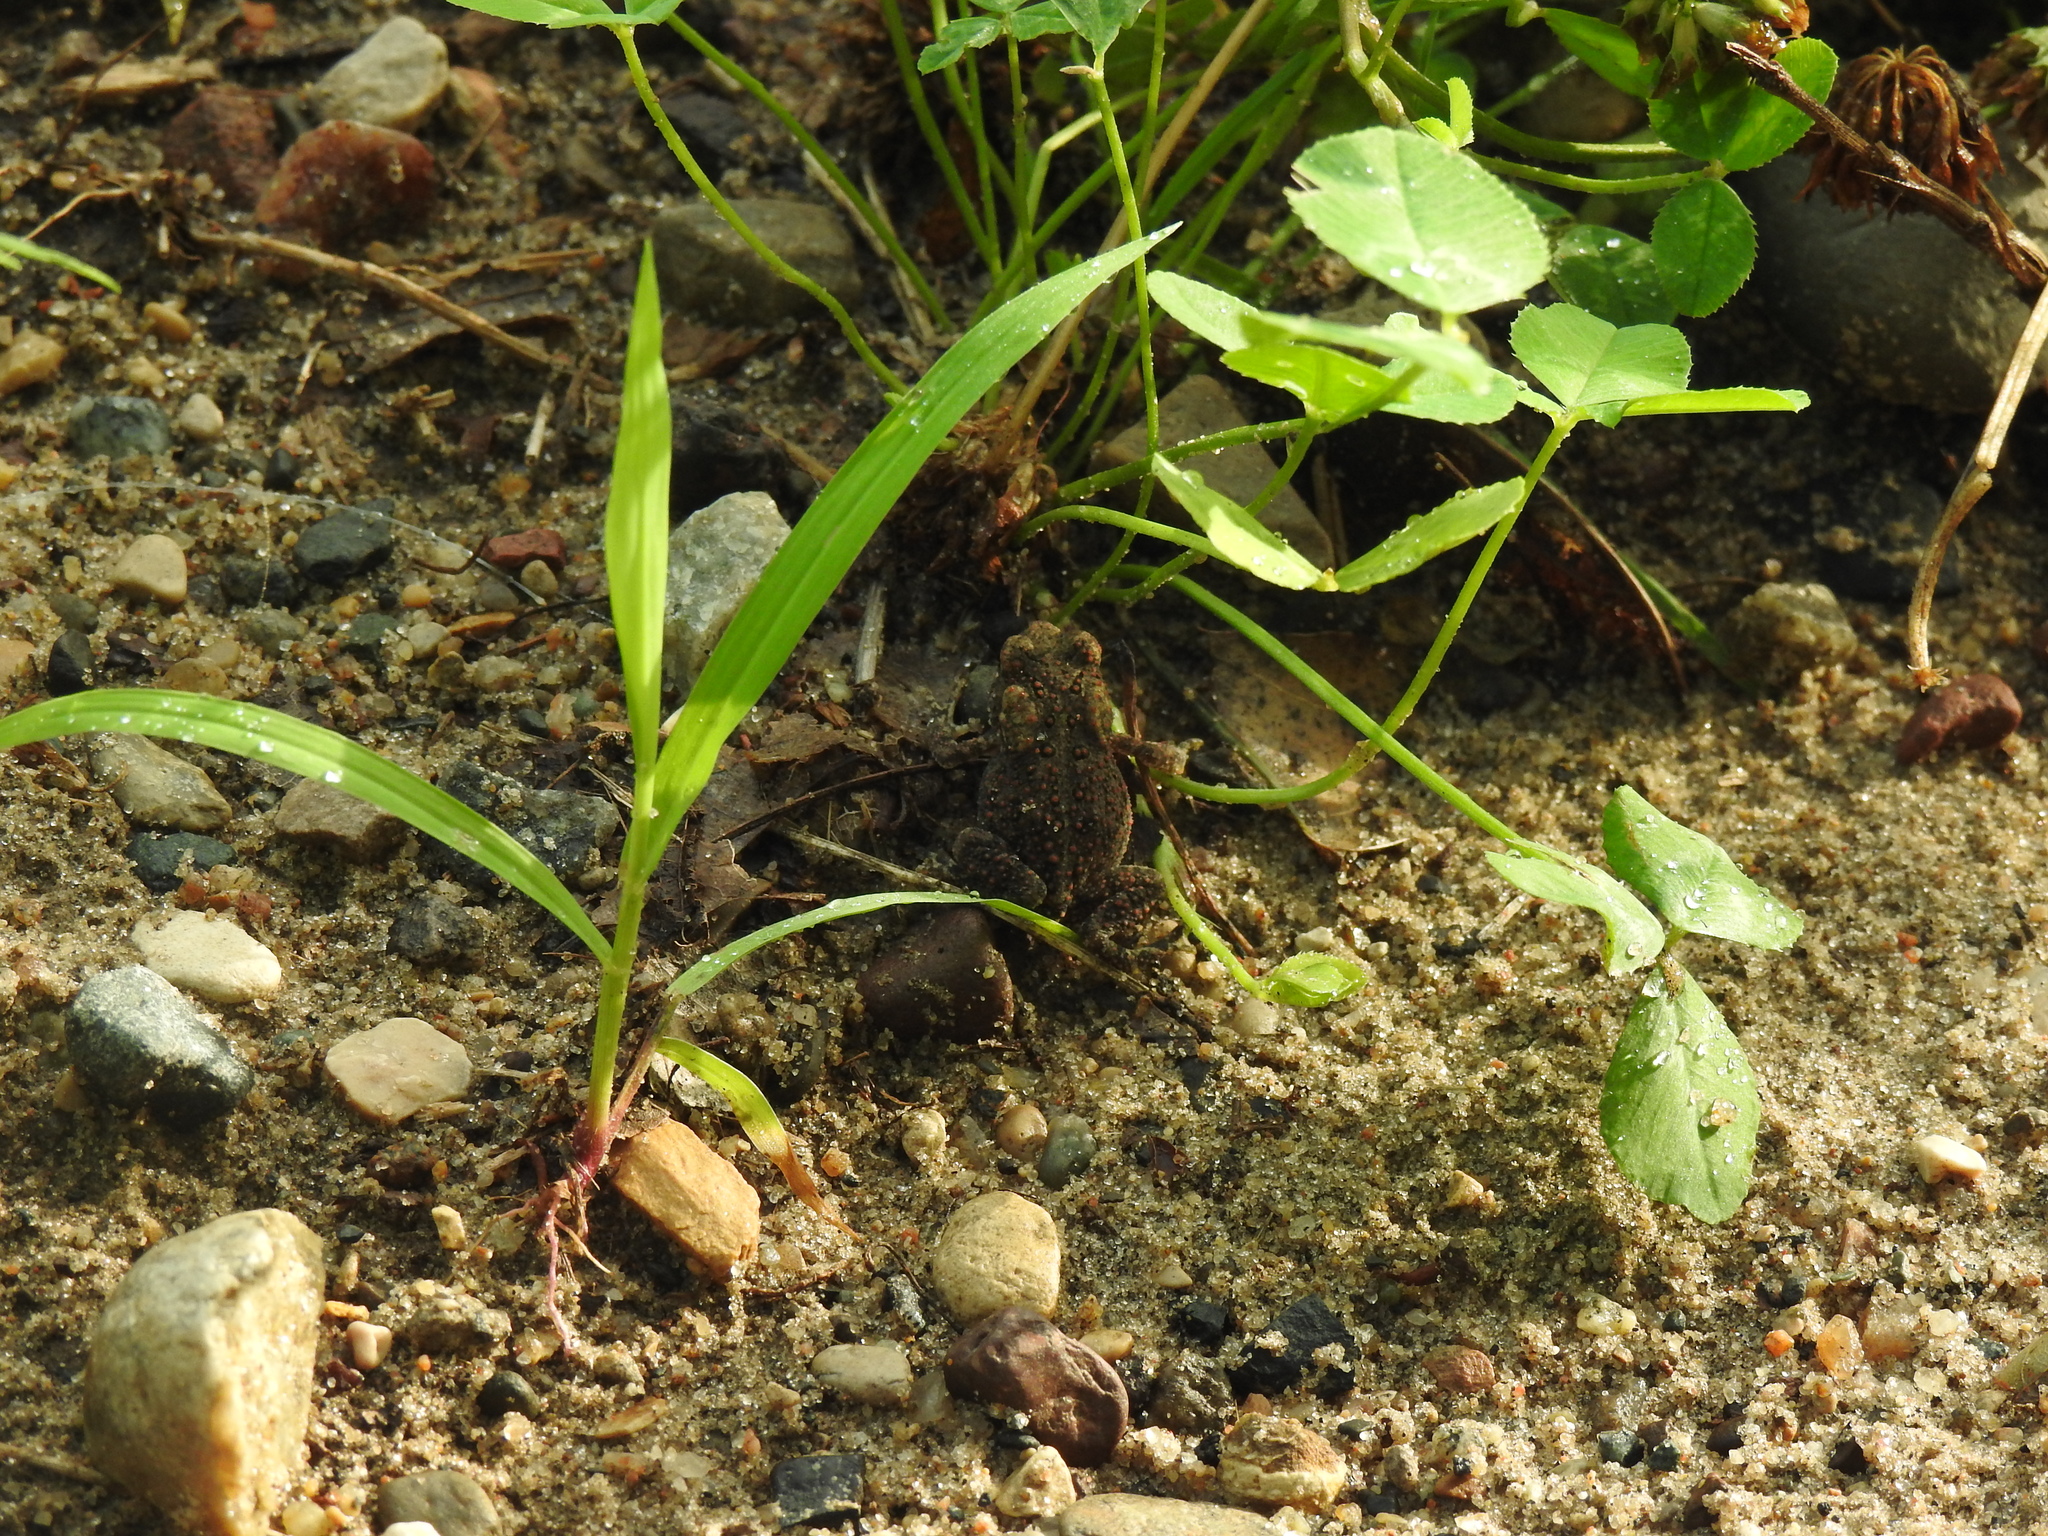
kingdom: Animalia
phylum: Chordata
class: Amphibia
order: Anura
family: Bufonidae
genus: Anaxyrus
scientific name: Anaxyrus americanus
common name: American toad
